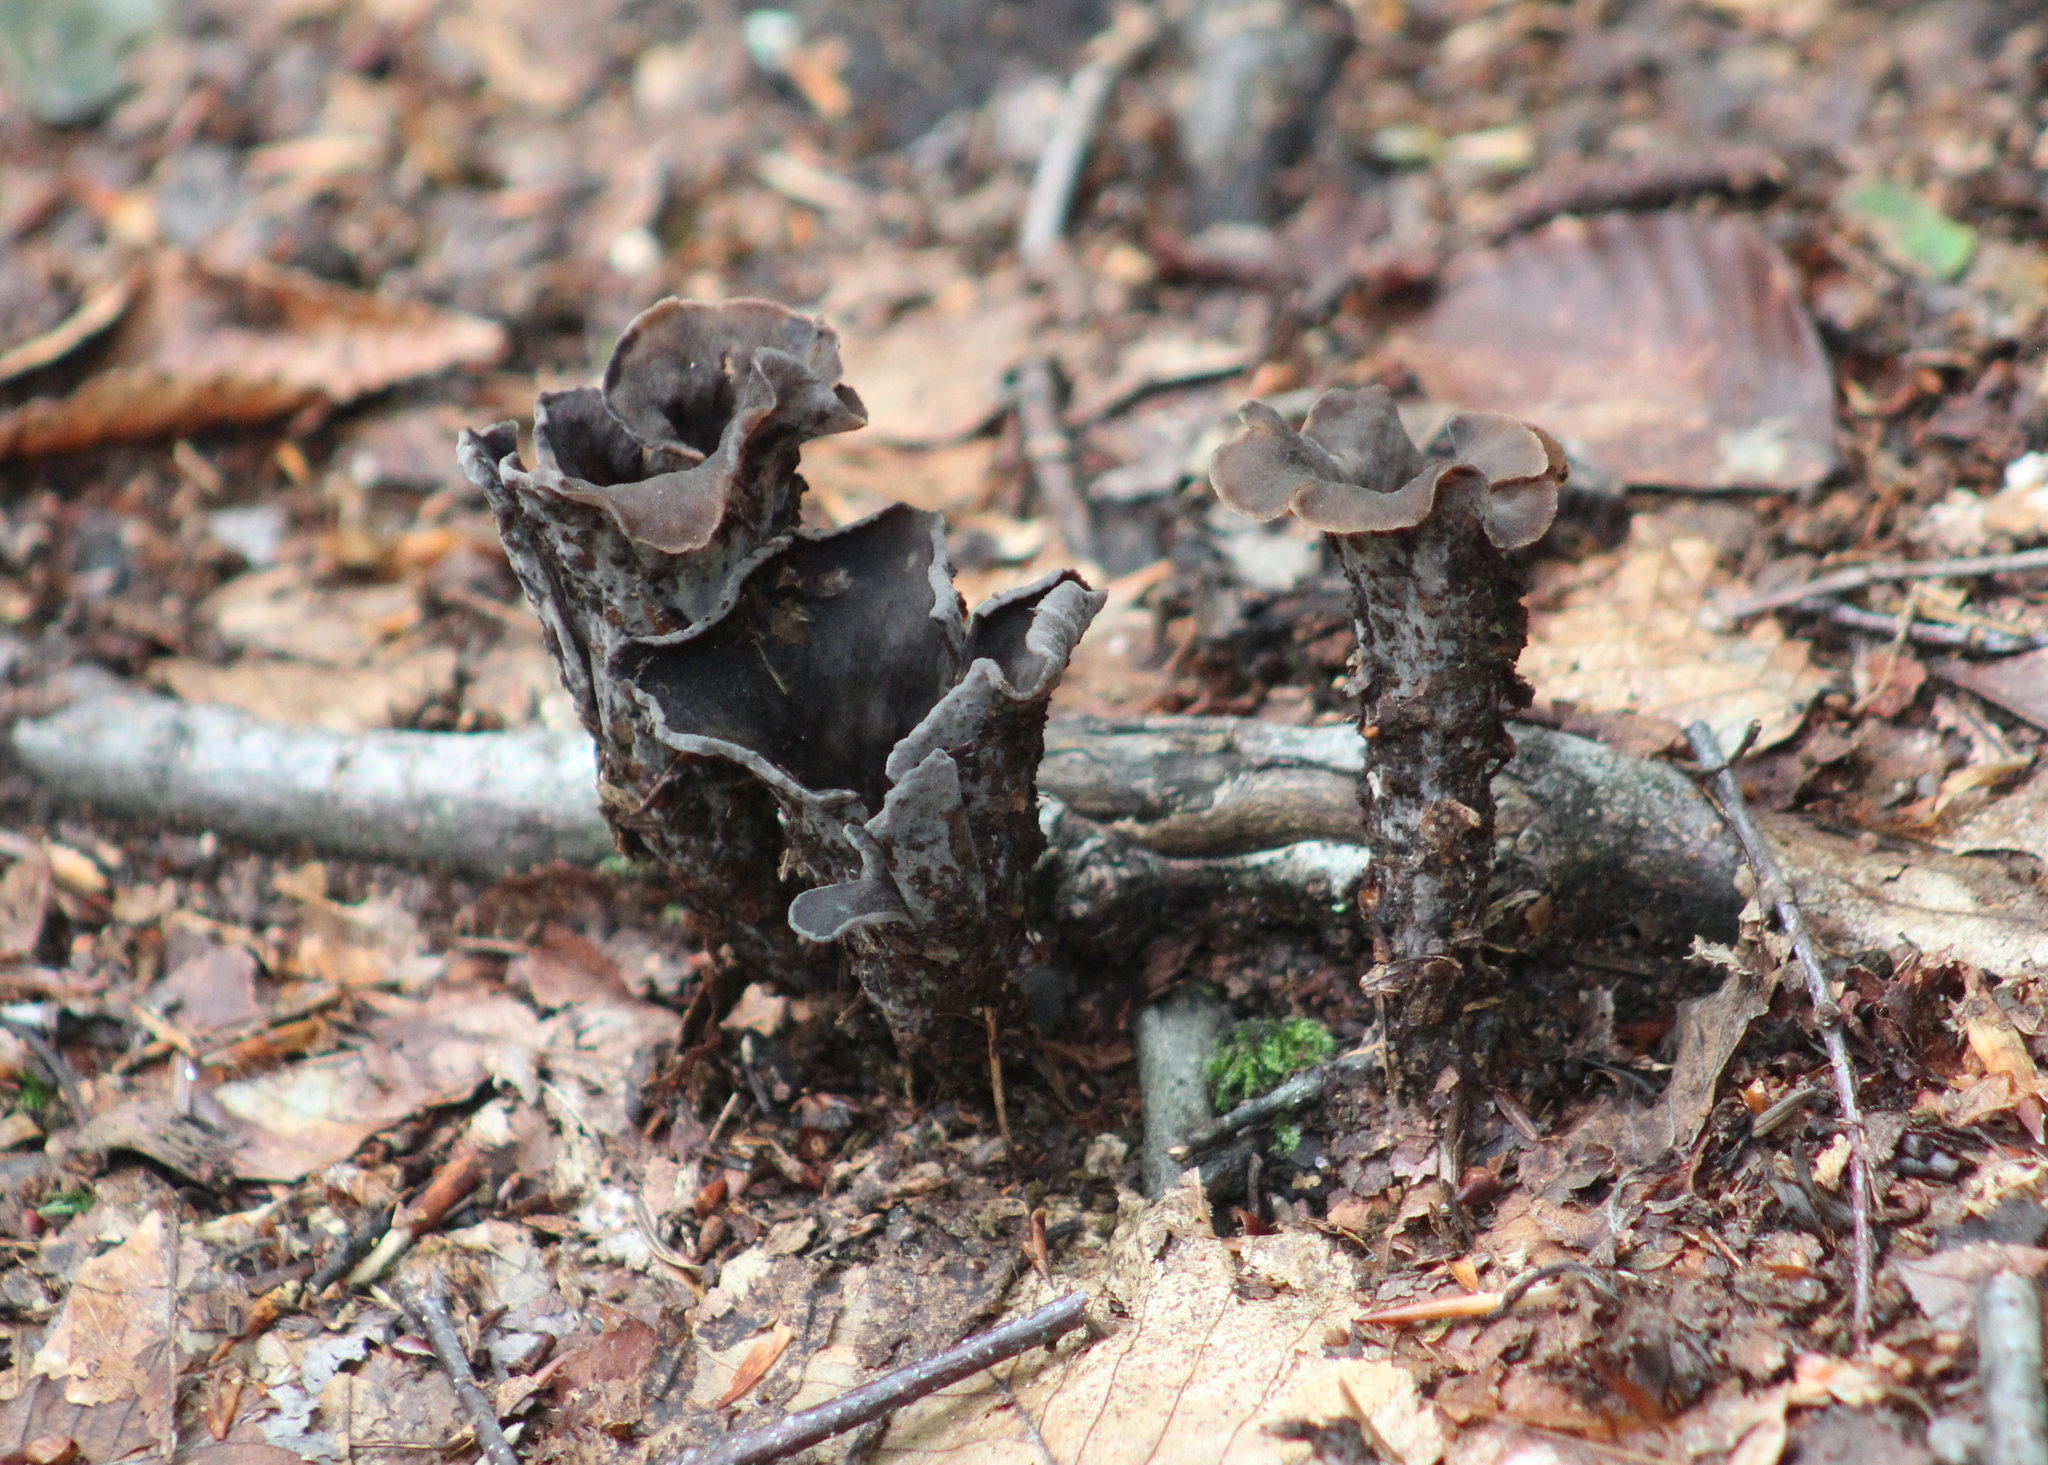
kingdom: Fungi
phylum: Basidiomycota
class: Agaricomycetes
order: Cantharellales
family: Hydnaceae
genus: Craterellus
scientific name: Craterellus cornucopioides
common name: Horn of plenty
